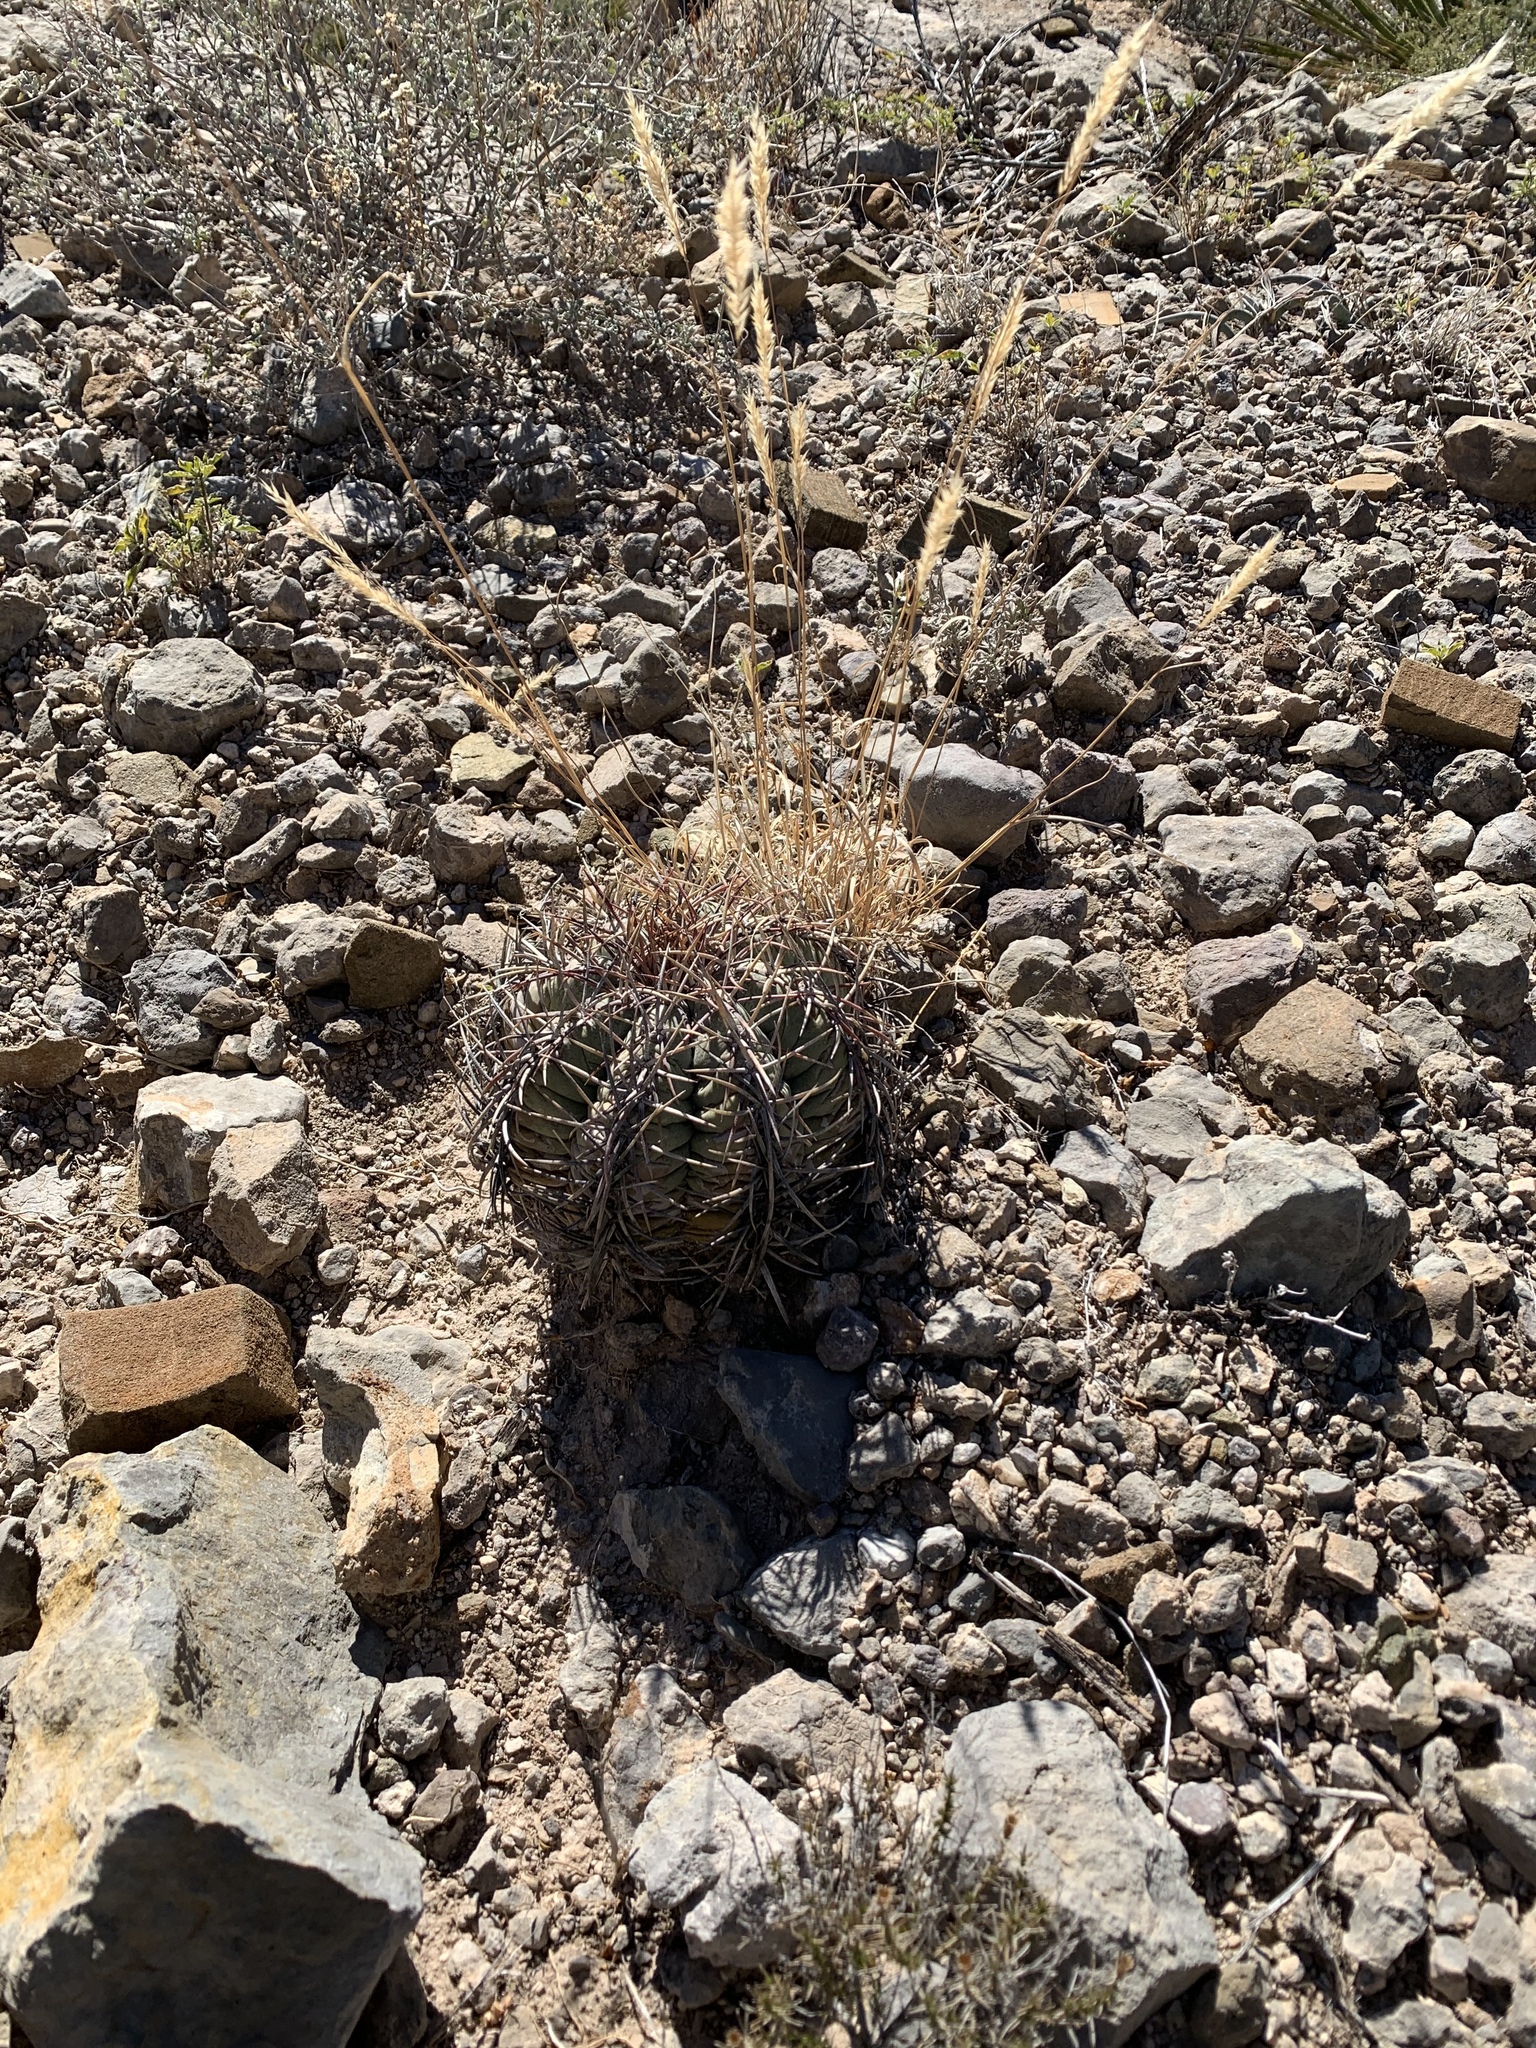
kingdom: Plantae
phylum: Tracheophyta
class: Magnoliopsida
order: Caryophyllales
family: Cactaceae
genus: Echinocactus
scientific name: Echinocactus horizonthalonius
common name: Devilshead
